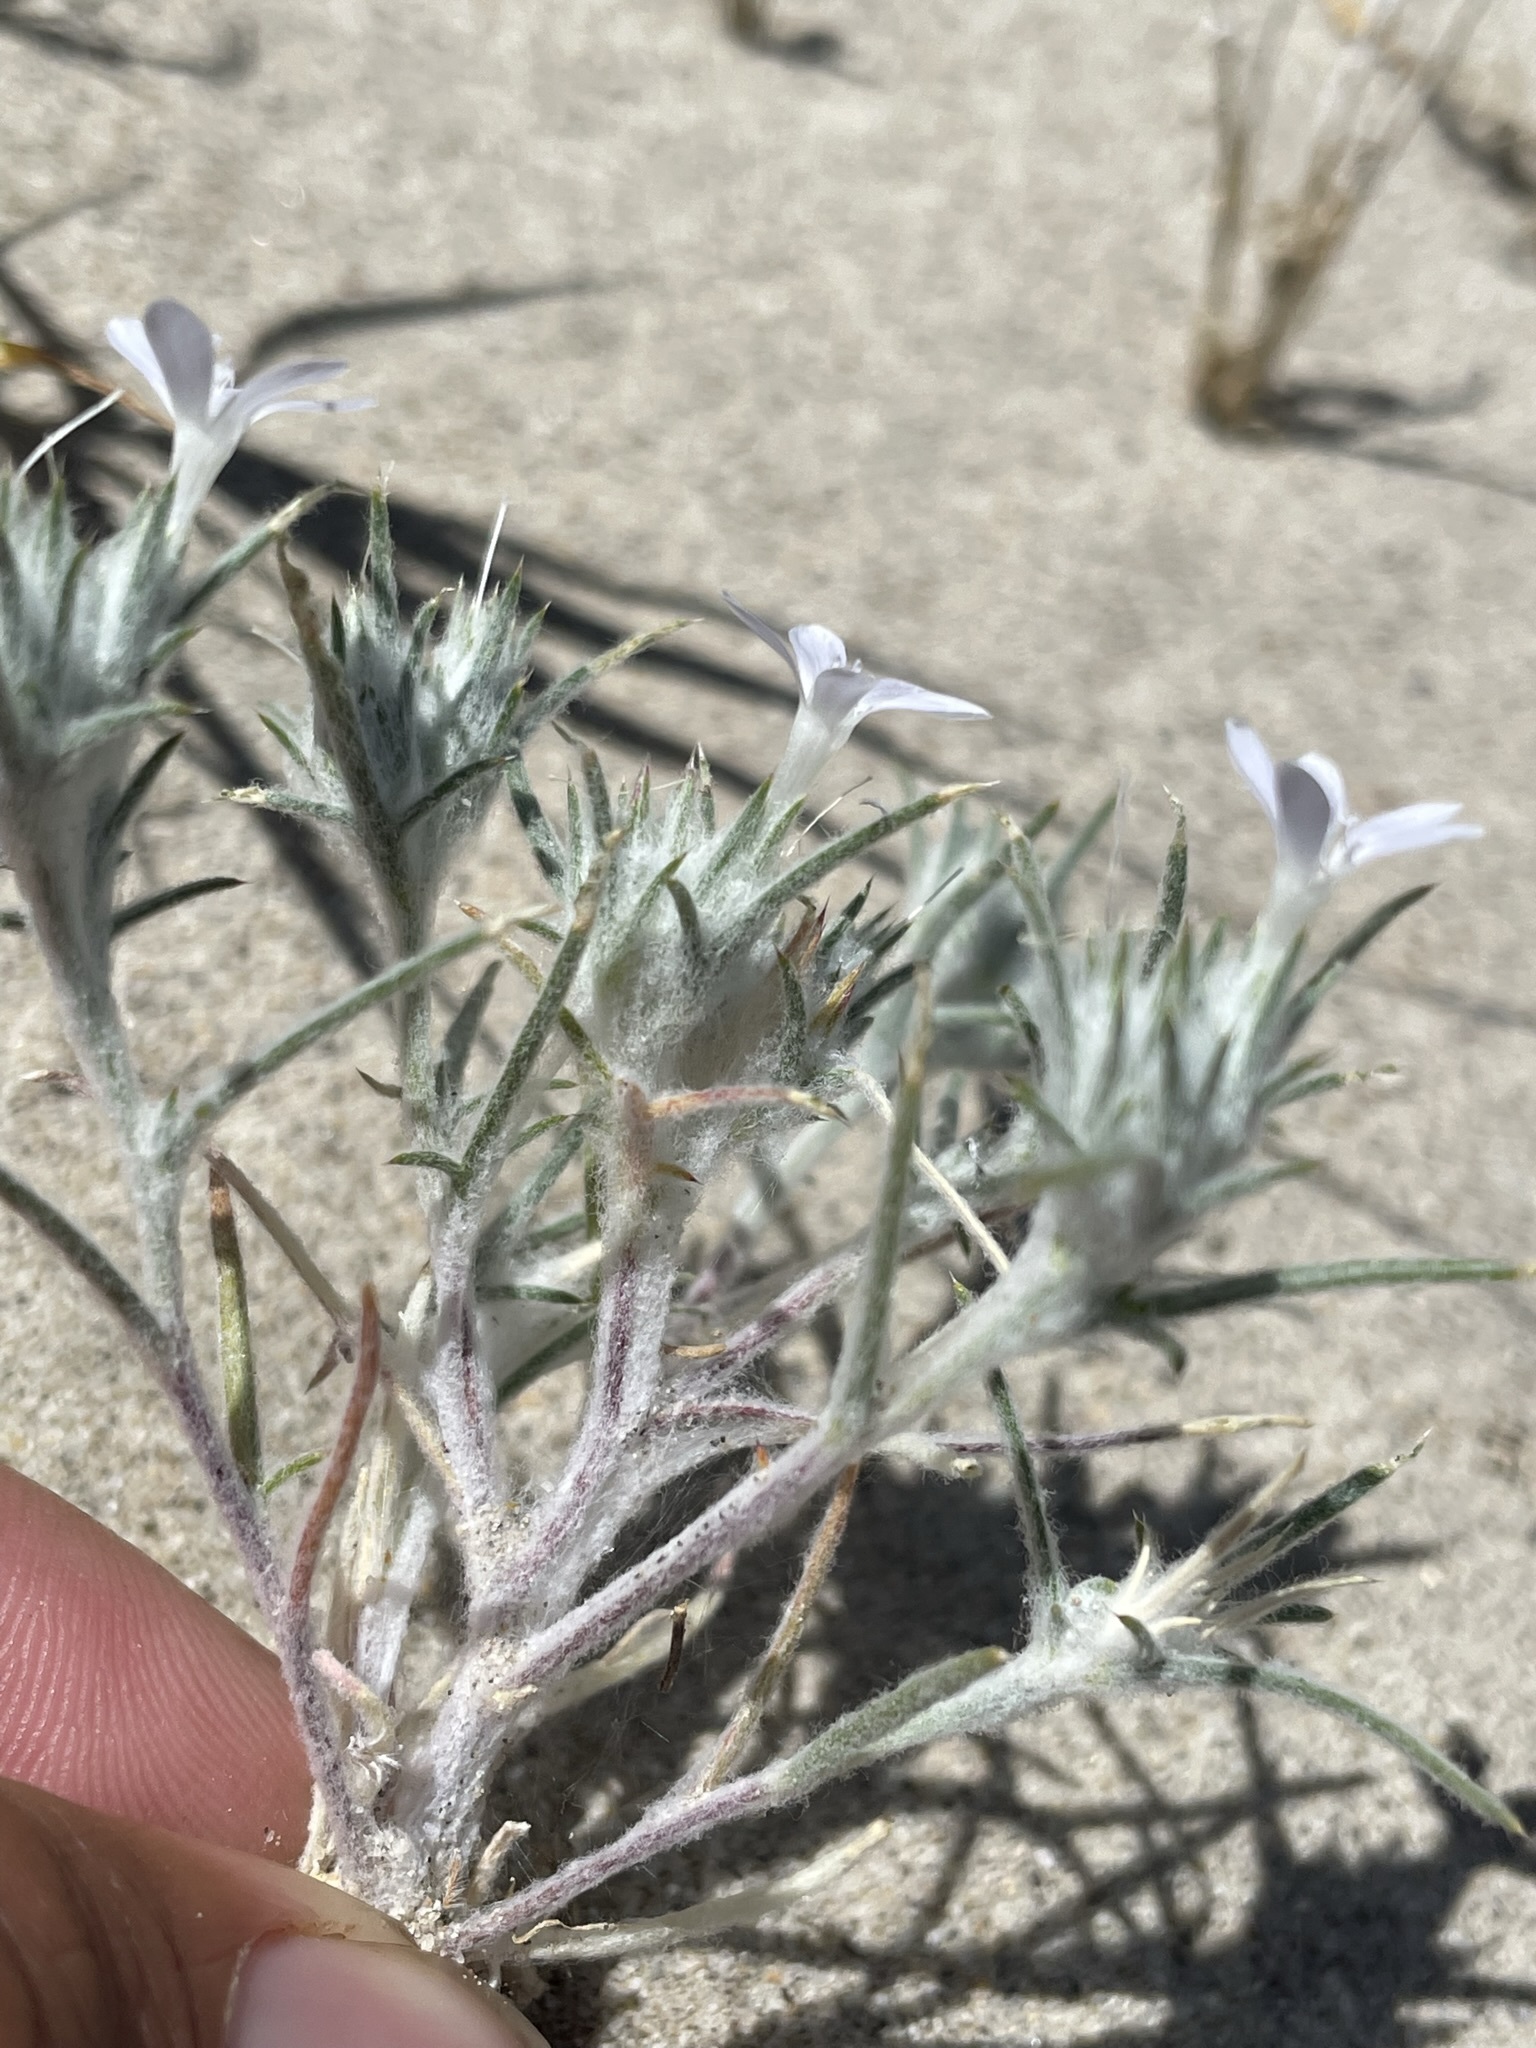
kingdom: Plantae
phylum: Tracheophyta
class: Magnoliopsida
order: Ericales
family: Polemoniaceae
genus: Eriastrum
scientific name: Eriastrum wilcoxii
